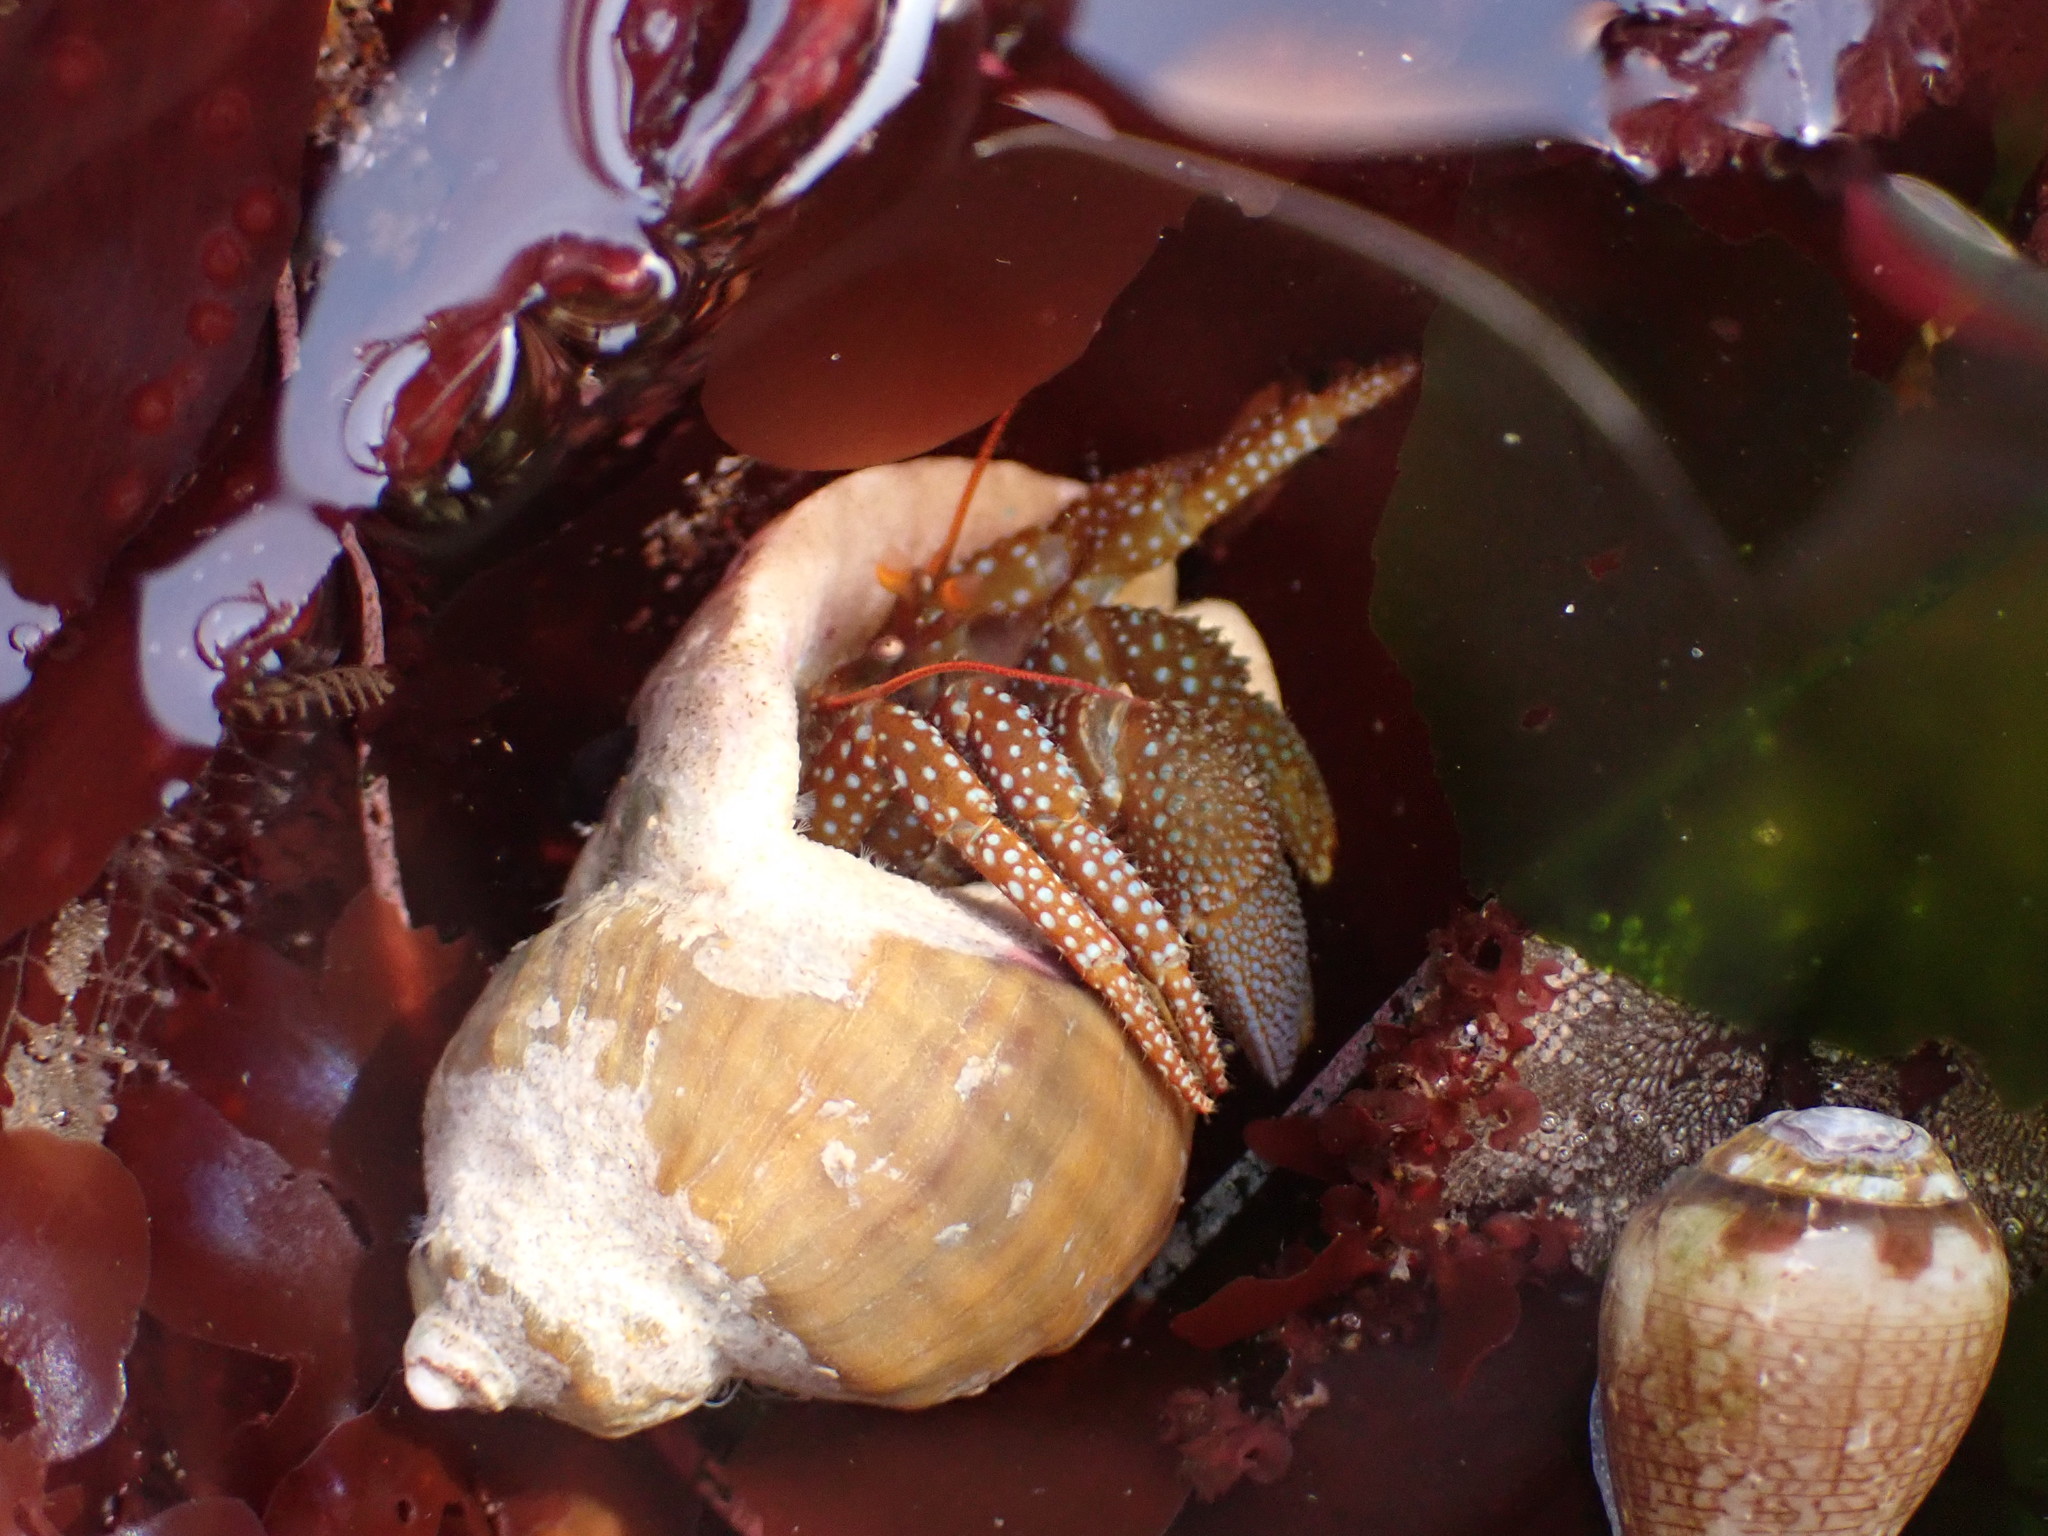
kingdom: Animalia
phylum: Arthropoda
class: Malacostraca
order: Decapoda
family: Paguridae
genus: Pagurus
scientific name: Pagurus granosimanus
